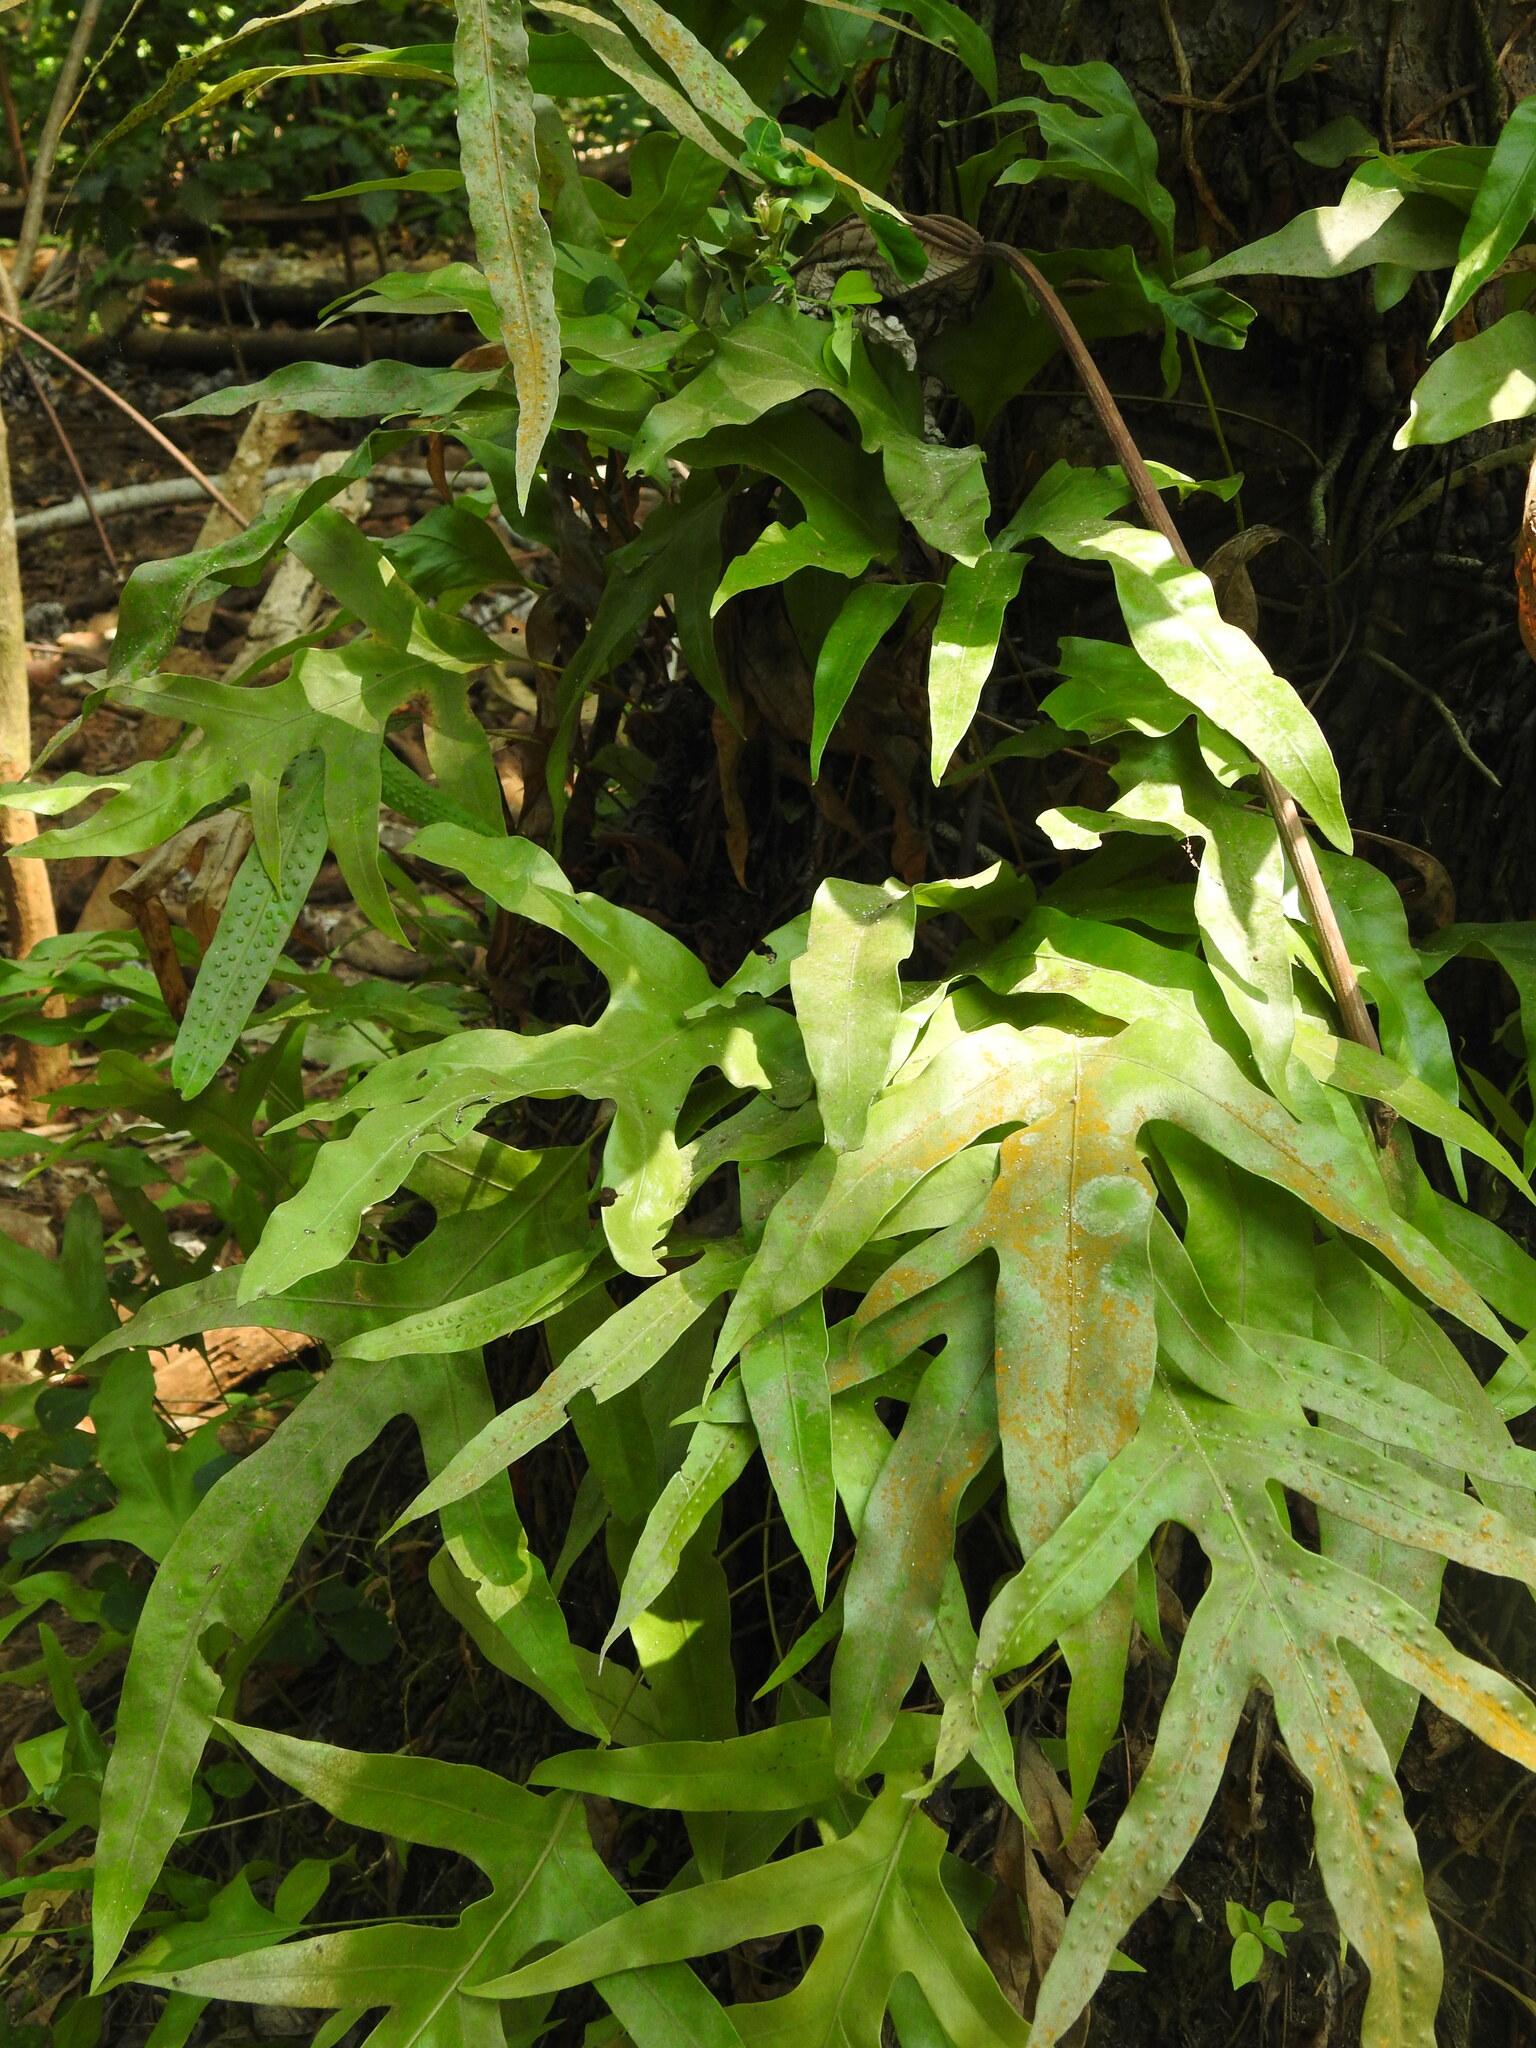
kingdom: Plantae
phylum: Tracheophyta
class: Polypodiopsida
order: Polypodiales
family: Polypodiaceae
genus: Microsorum
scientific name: Microsorum scolopendria
